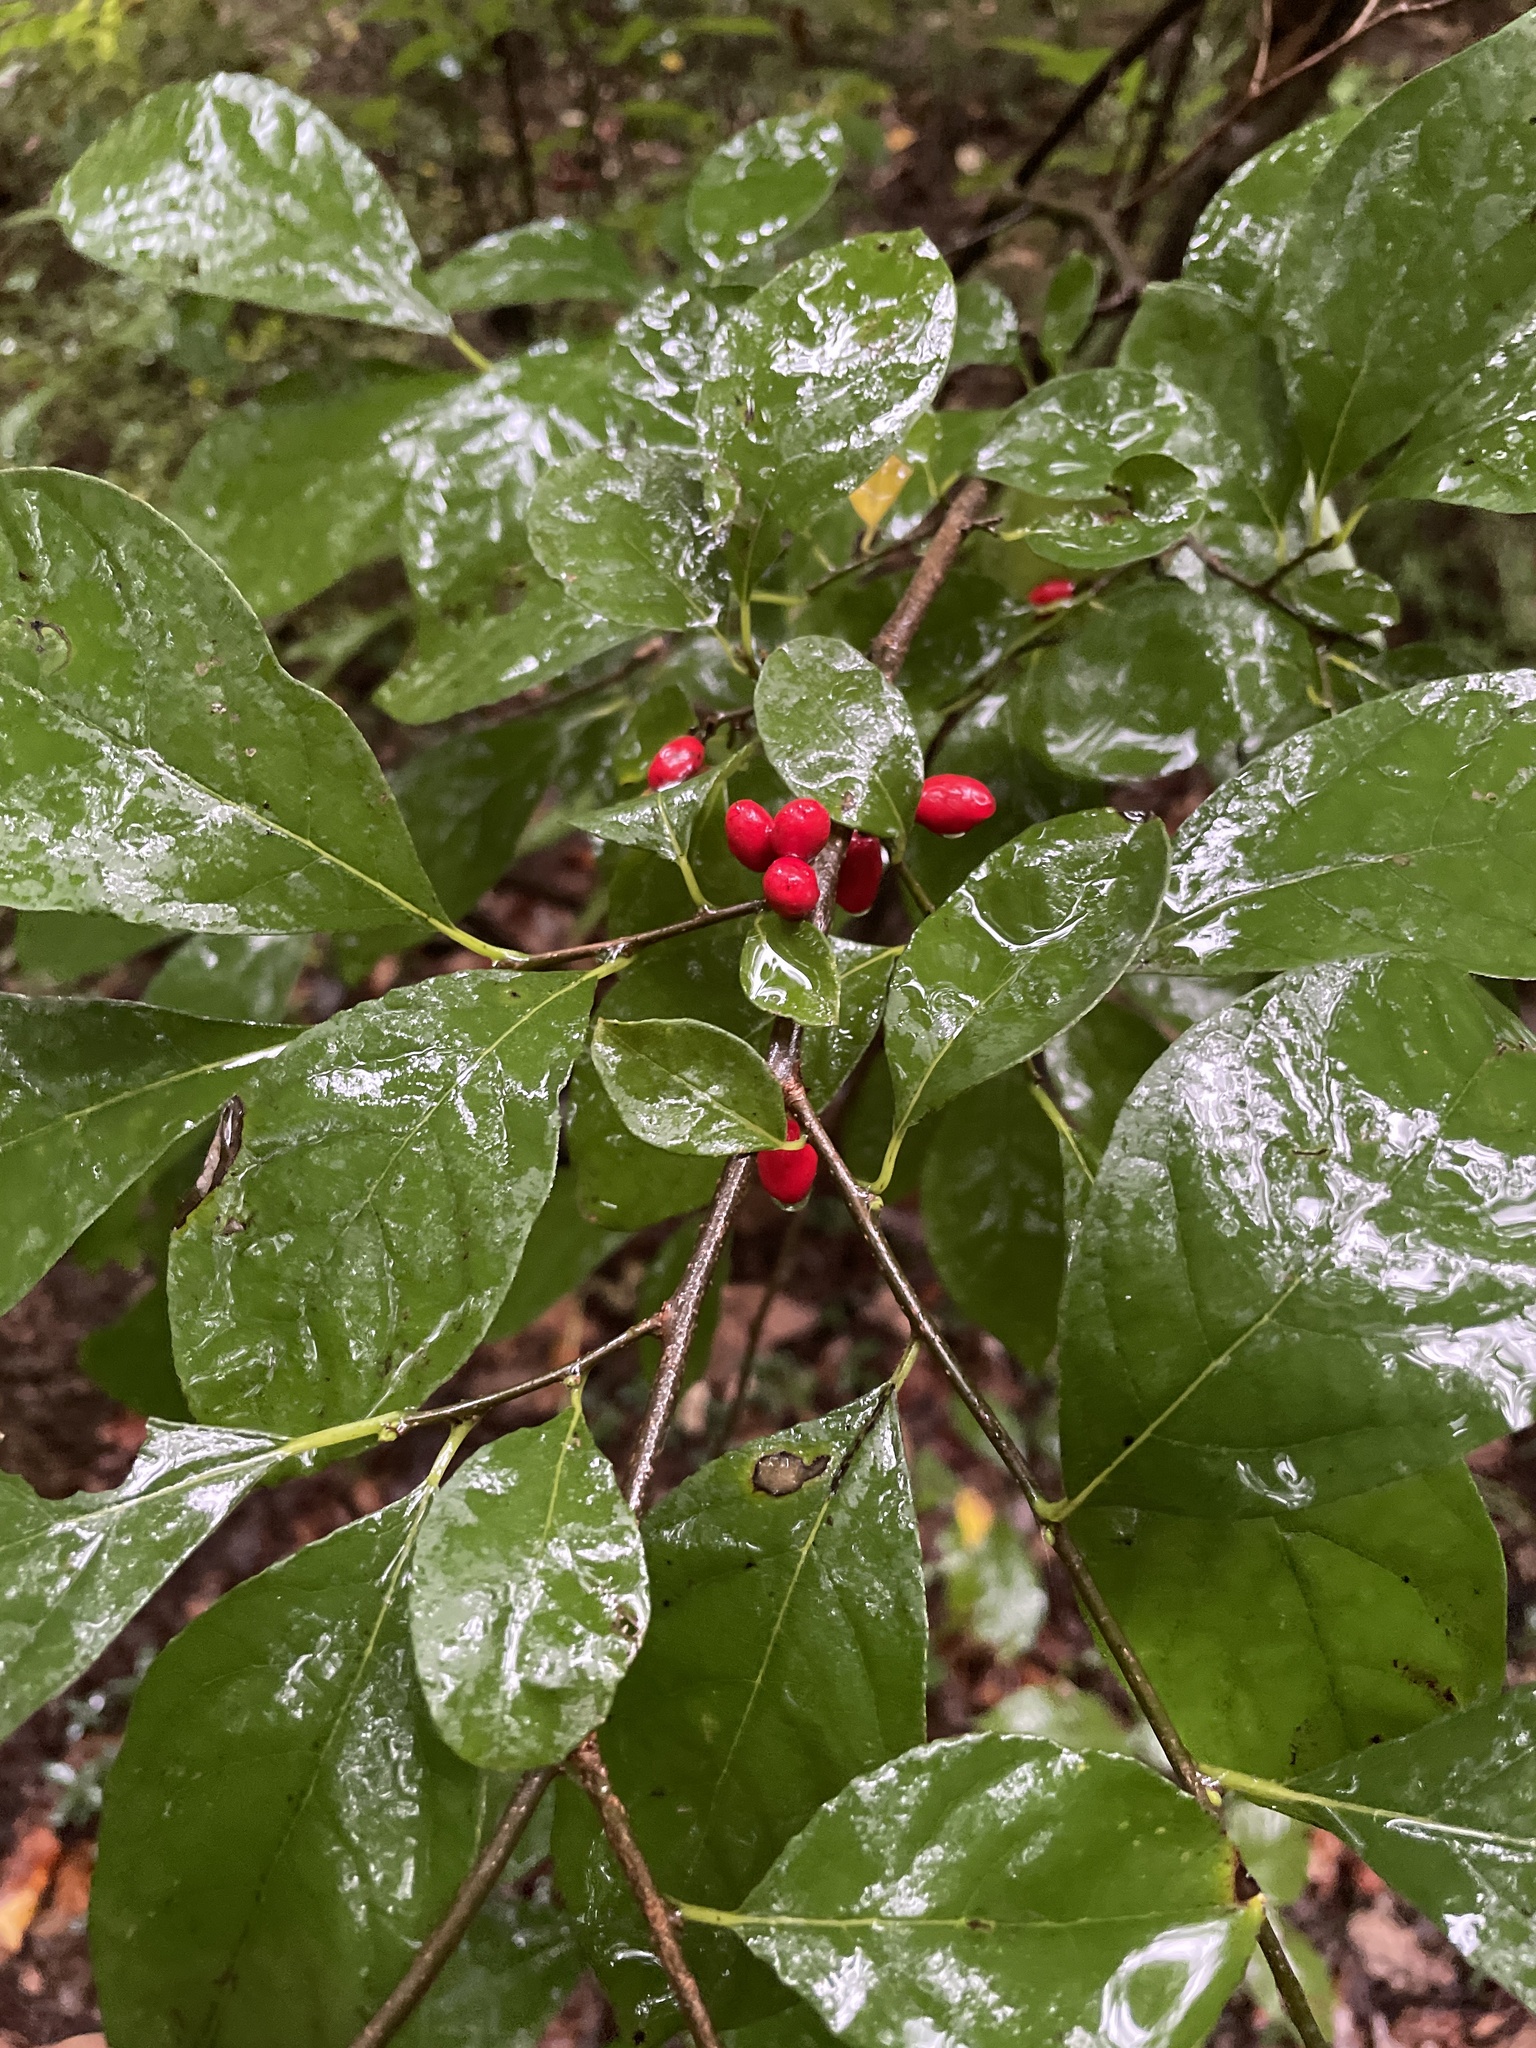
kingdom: Plantae
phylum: Tracheophyta
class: Magnoliopsida
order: Laurales
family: Lauraceae
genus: Lindera
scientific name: Lindera benzoin
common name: Spicebush
